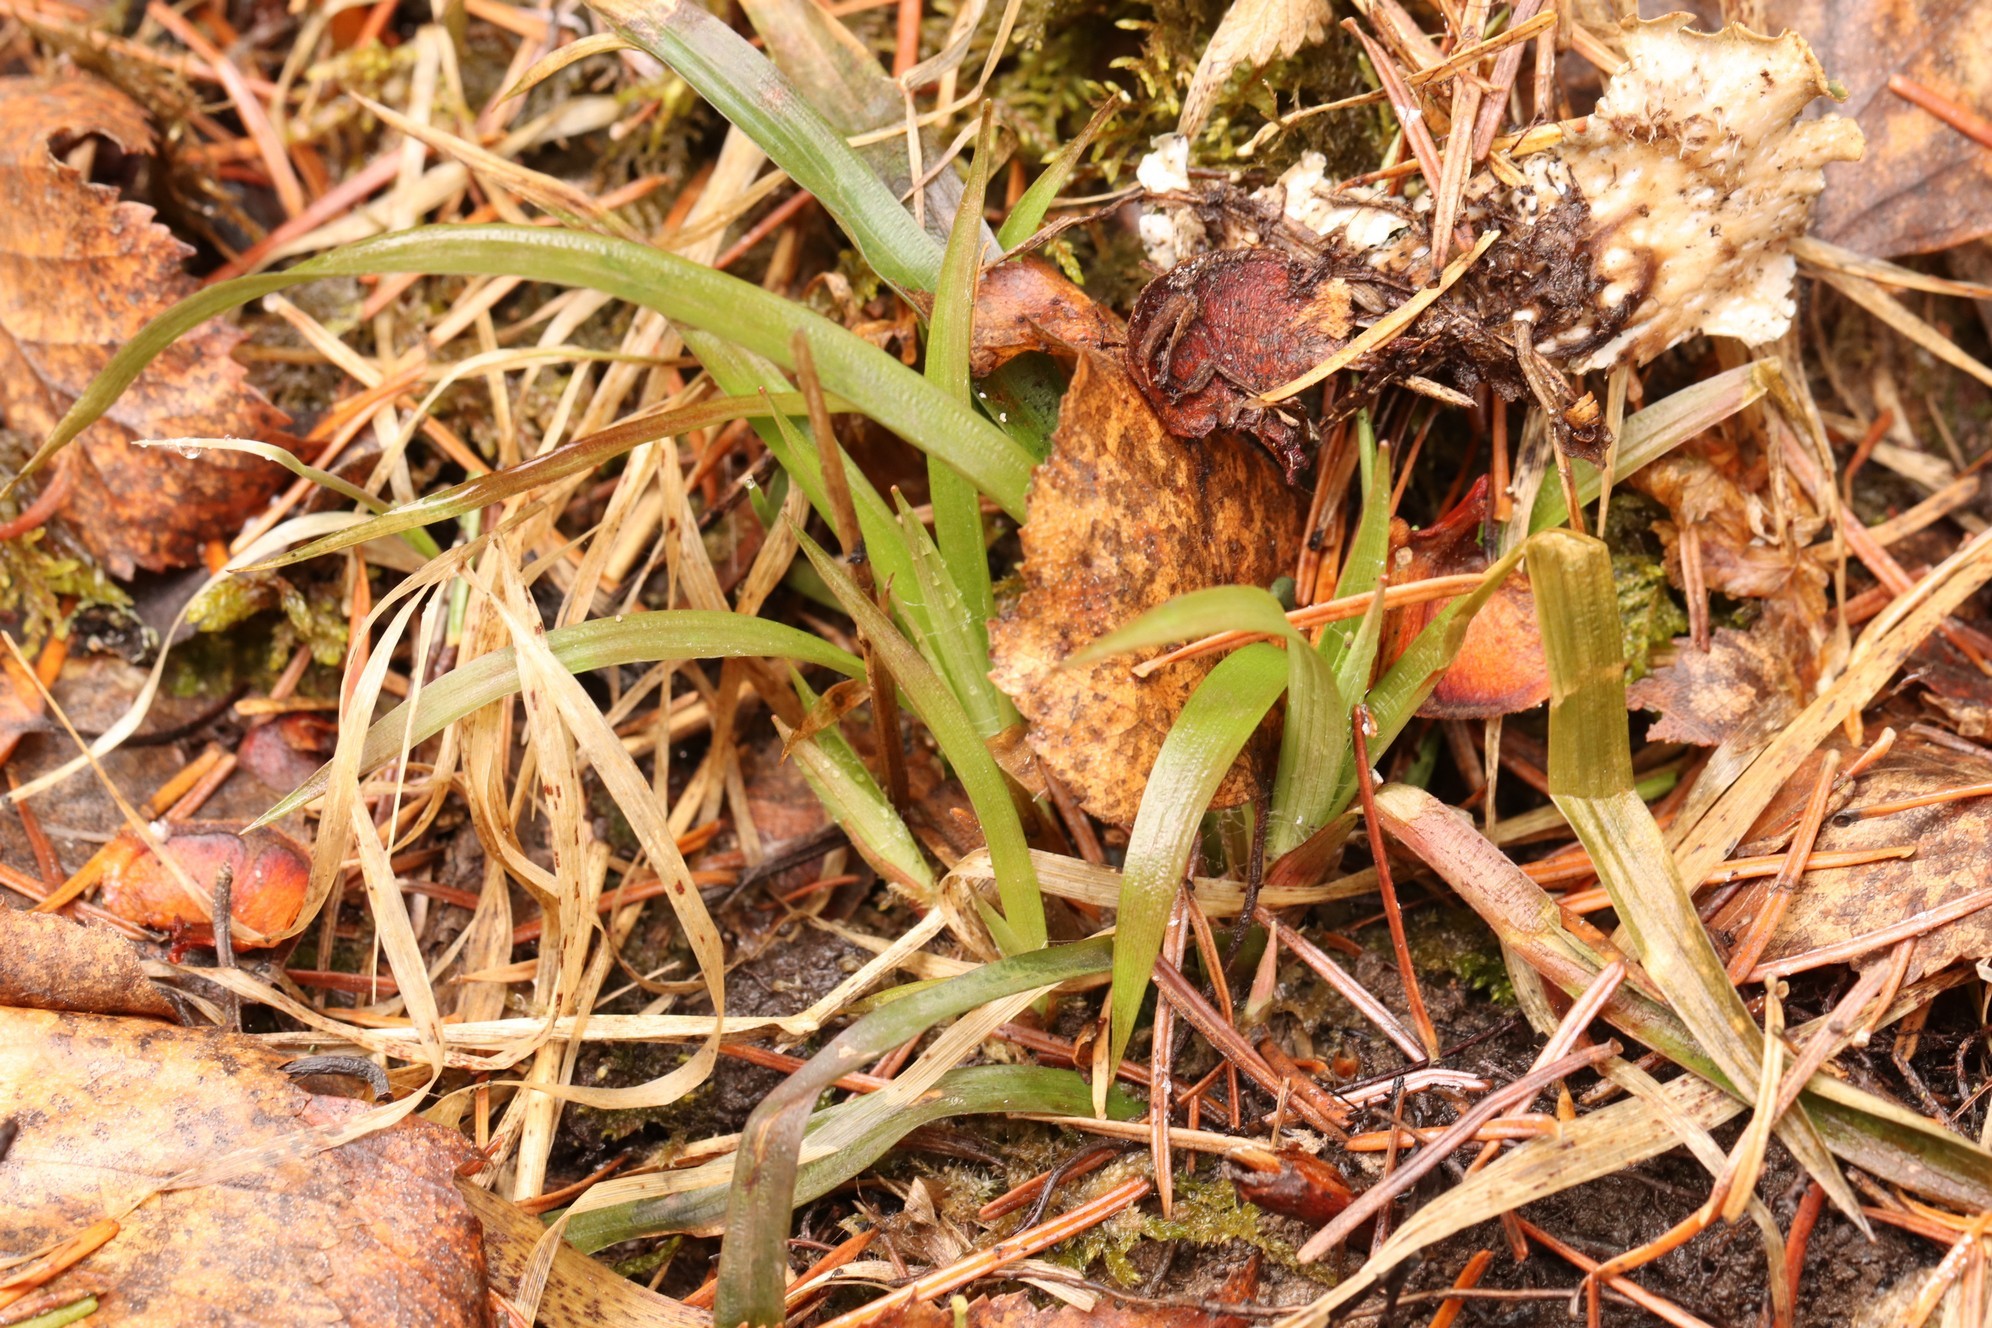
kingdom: Plantae
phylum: Tracheophyta
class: Liliopsida
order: Poales
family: Juncaceae
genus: Luzula
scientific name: Luzula pilosa
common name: Hairy wood-rush
